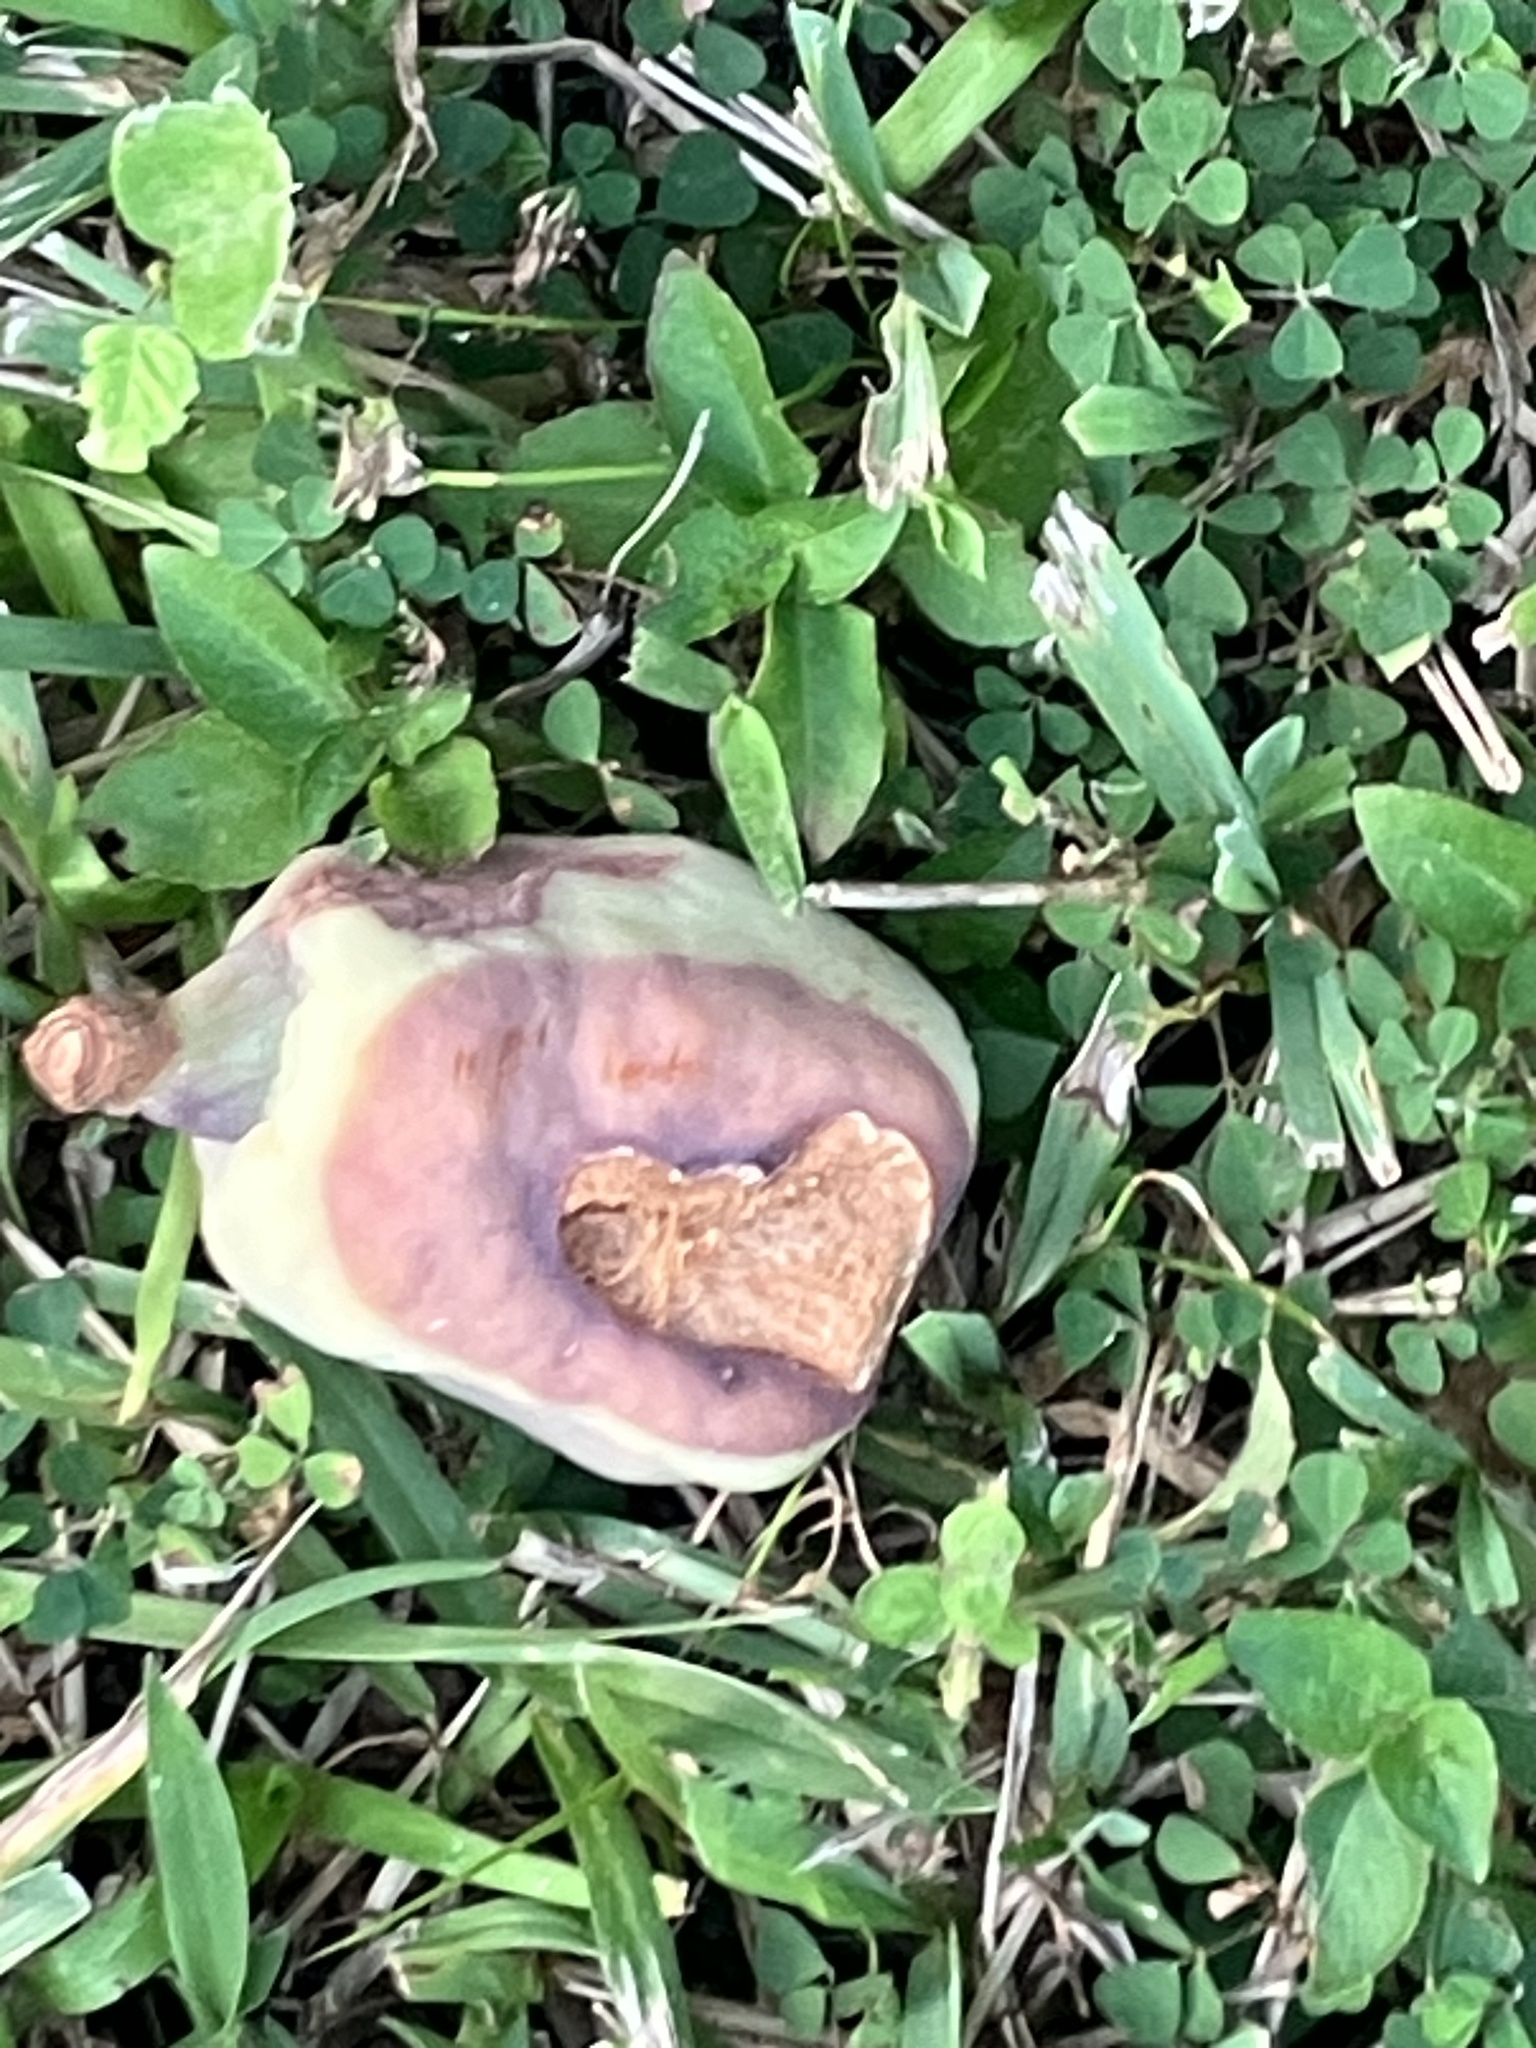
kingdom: Plantae
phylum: Tracheophyta
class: Magnoliopsida
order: Rosales
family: Moraceae
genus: Ficus
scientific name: Ficus pumila
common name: Climbingfig
